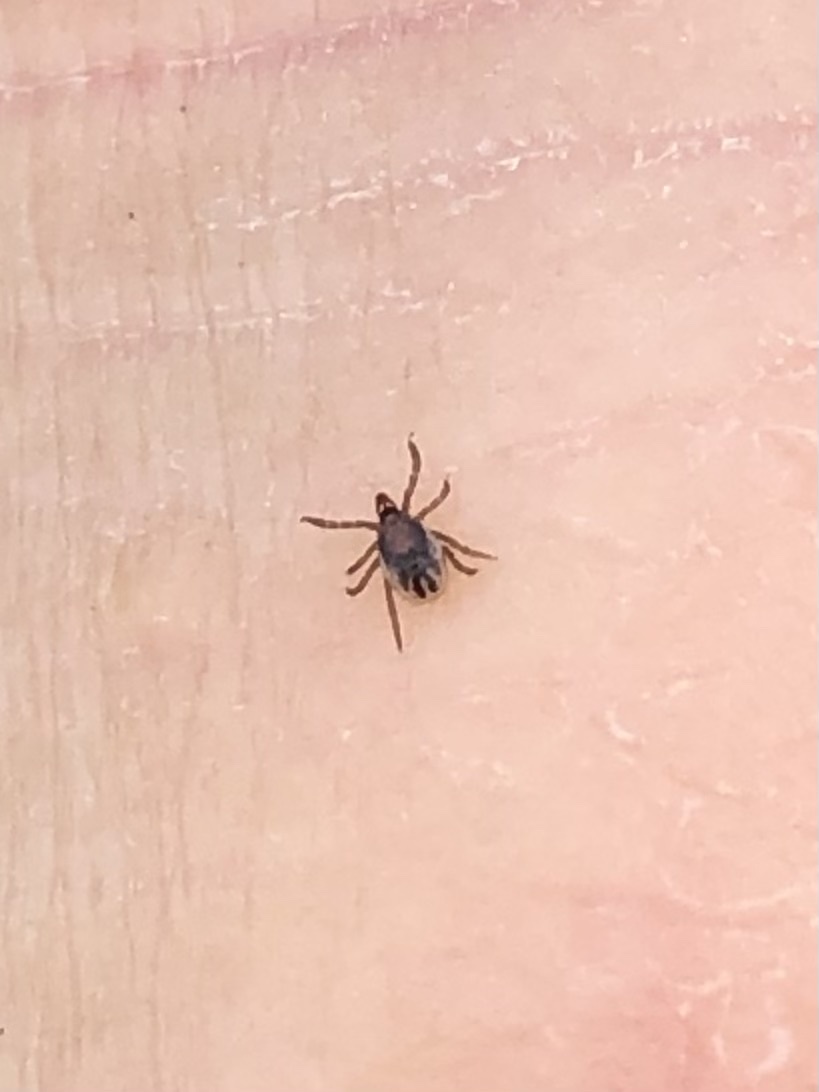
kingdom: Animalia
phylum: Arthropoda
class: Arachnida
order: Ixodida
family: Ixodidae
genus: Ixodes
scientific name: Ixodes scapularis
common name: Black legged tick
